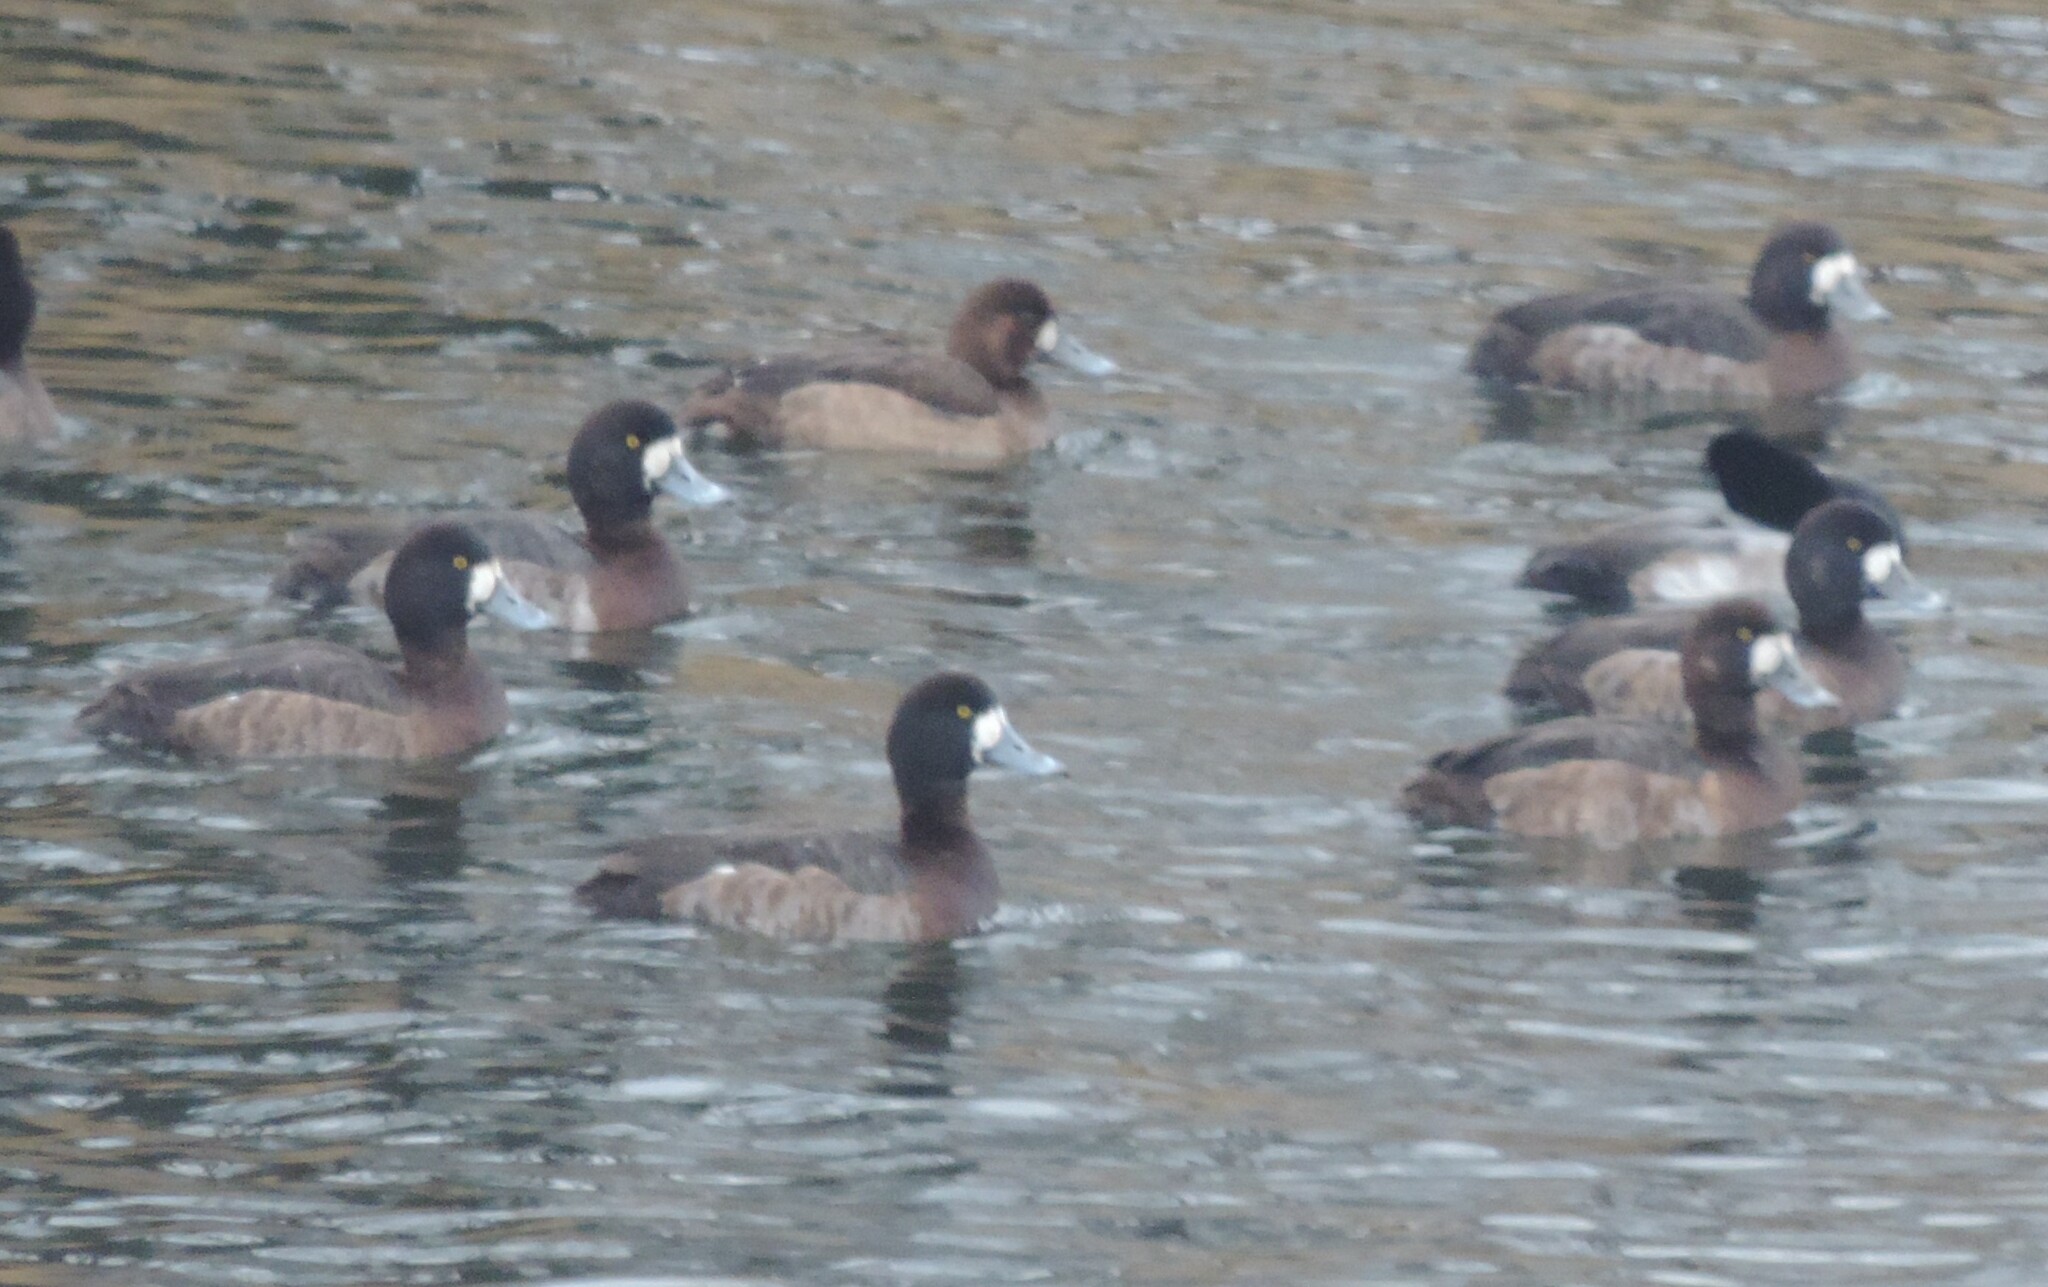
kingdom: Animalia
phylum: Chordata
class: Aves
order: Anseriformes
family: Anatidae
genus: Aythya
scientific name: Aythya marila
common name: Greater scaup
